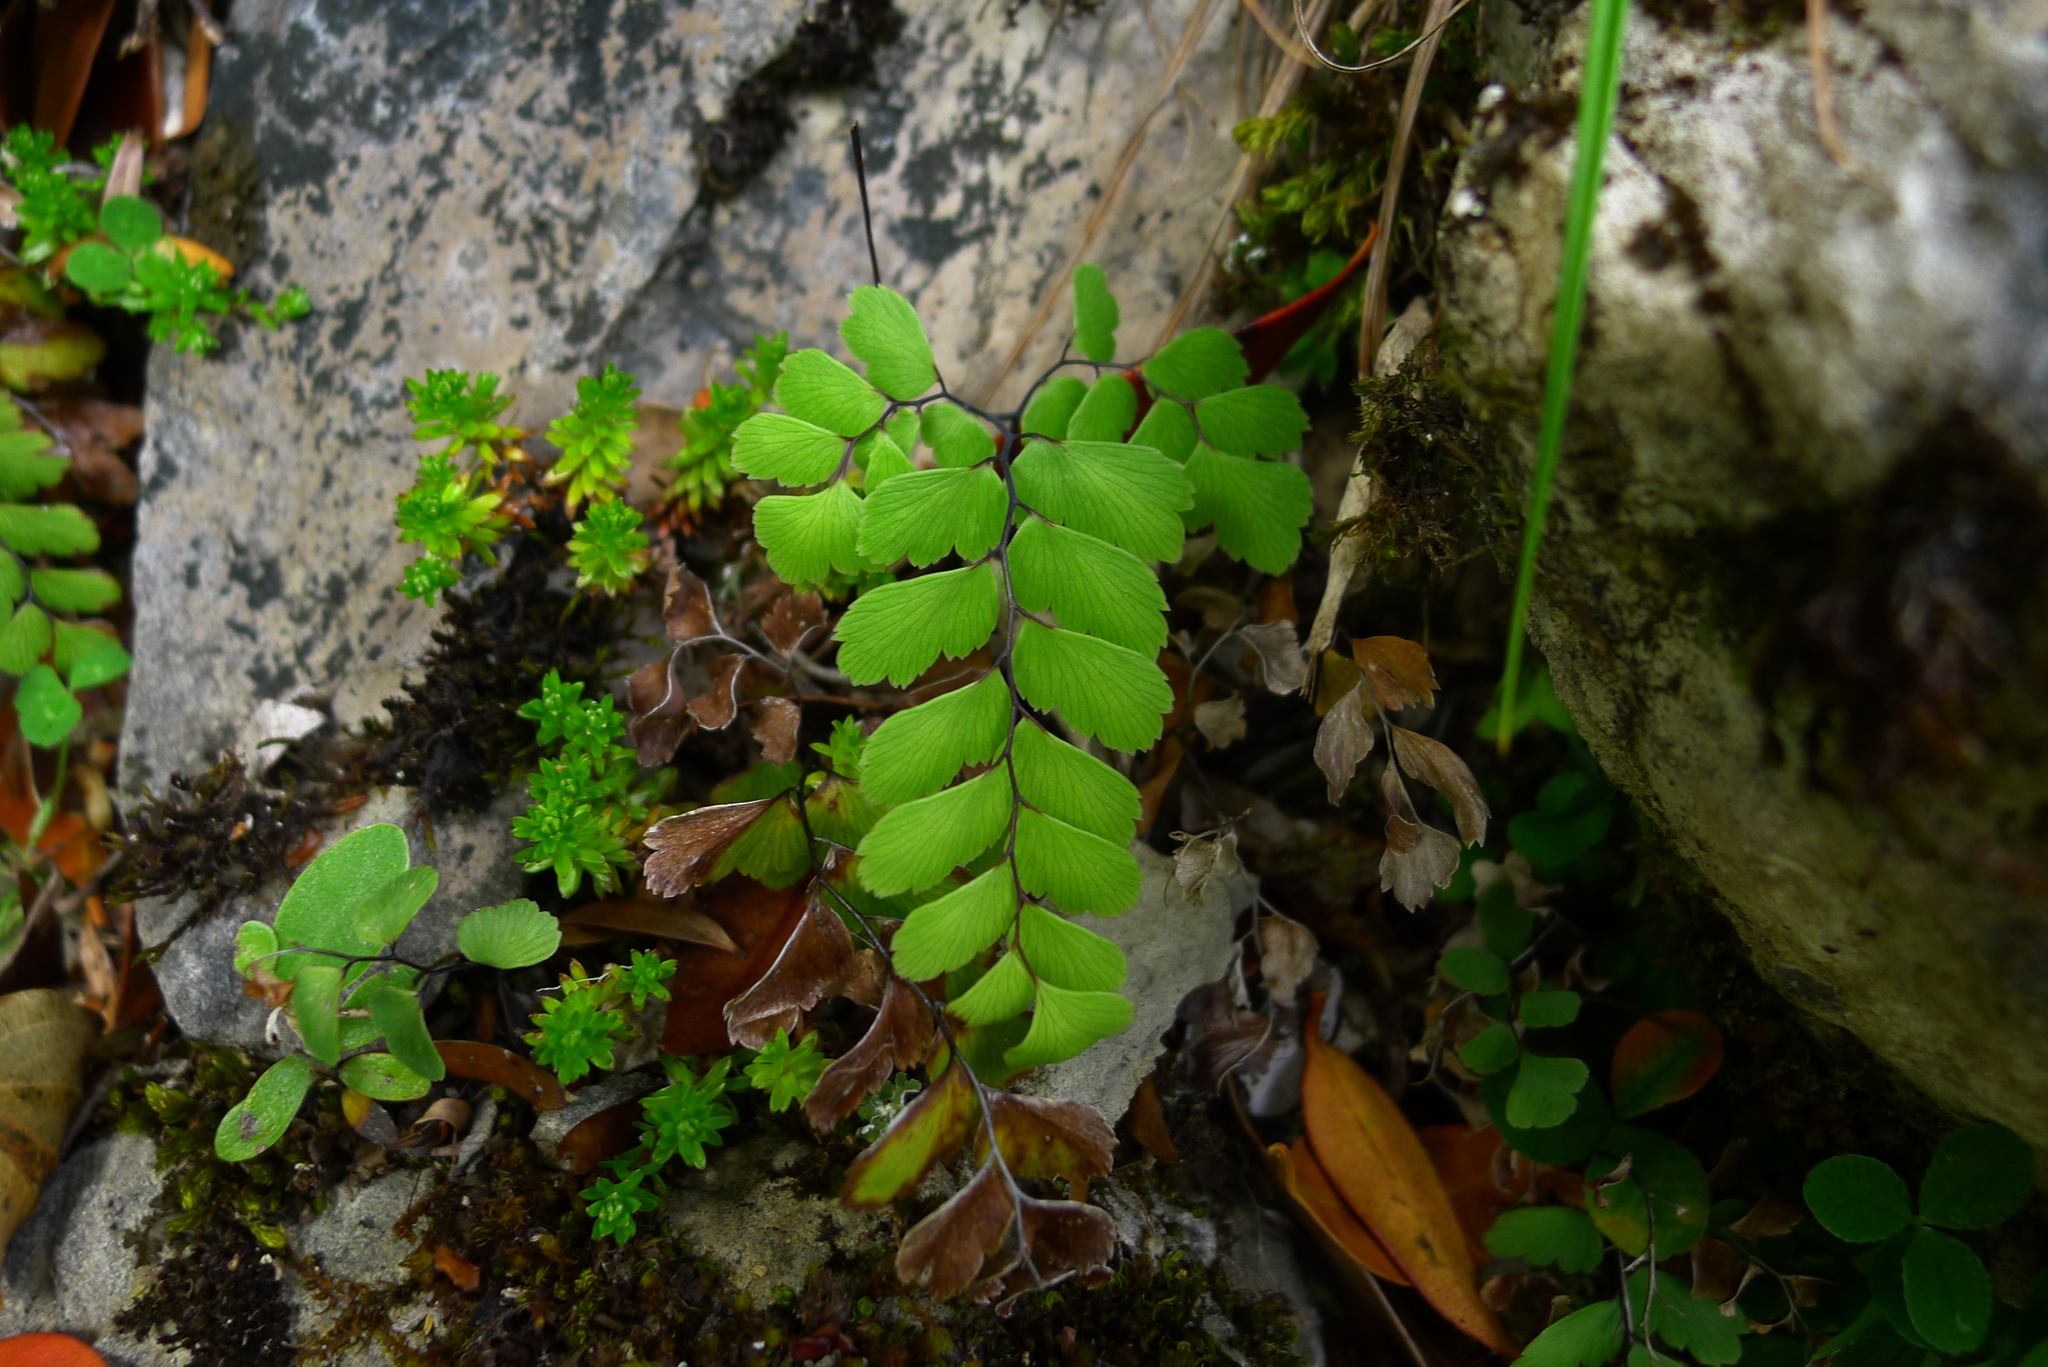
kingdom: Plantae
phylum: Tracheophyta
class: Polypodiopsida
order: Polypodiales
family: Pteridaceae
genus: Adiantum
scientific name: Adiantum cunninghamii
